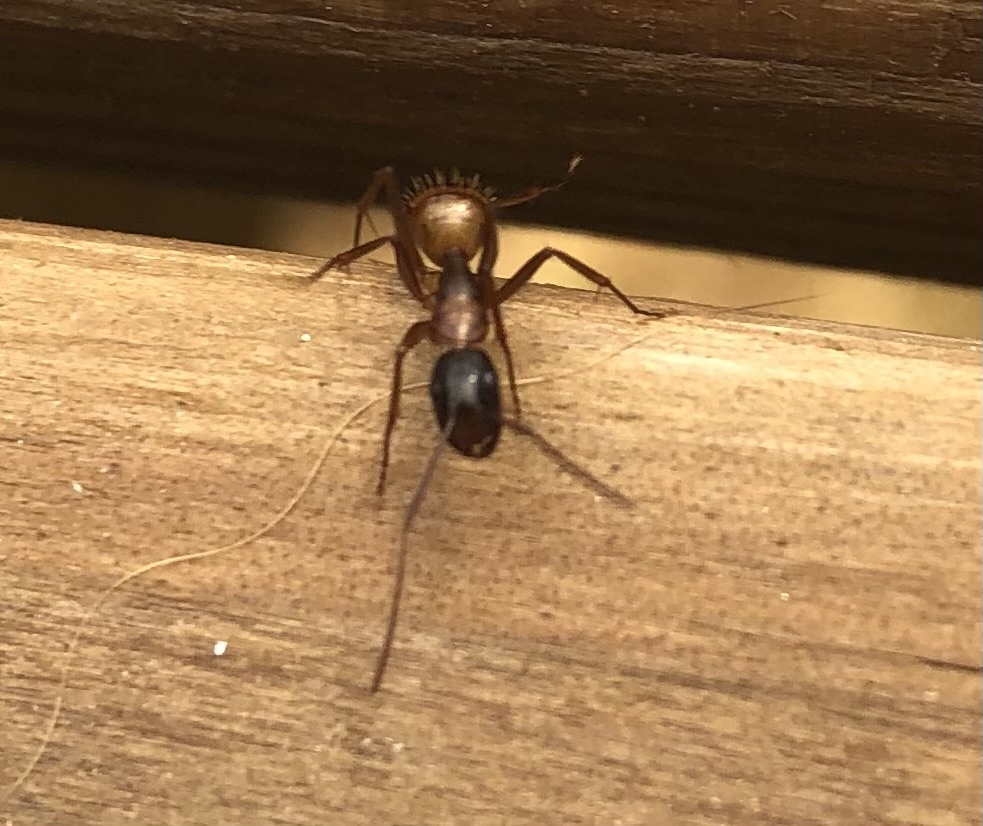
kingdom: Animalia
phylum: Arthropoda
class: Insecta
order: Hymenoptera
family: Formicidae
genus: Camponotus
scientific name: Camponotus americanus
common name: American carpenter ant
